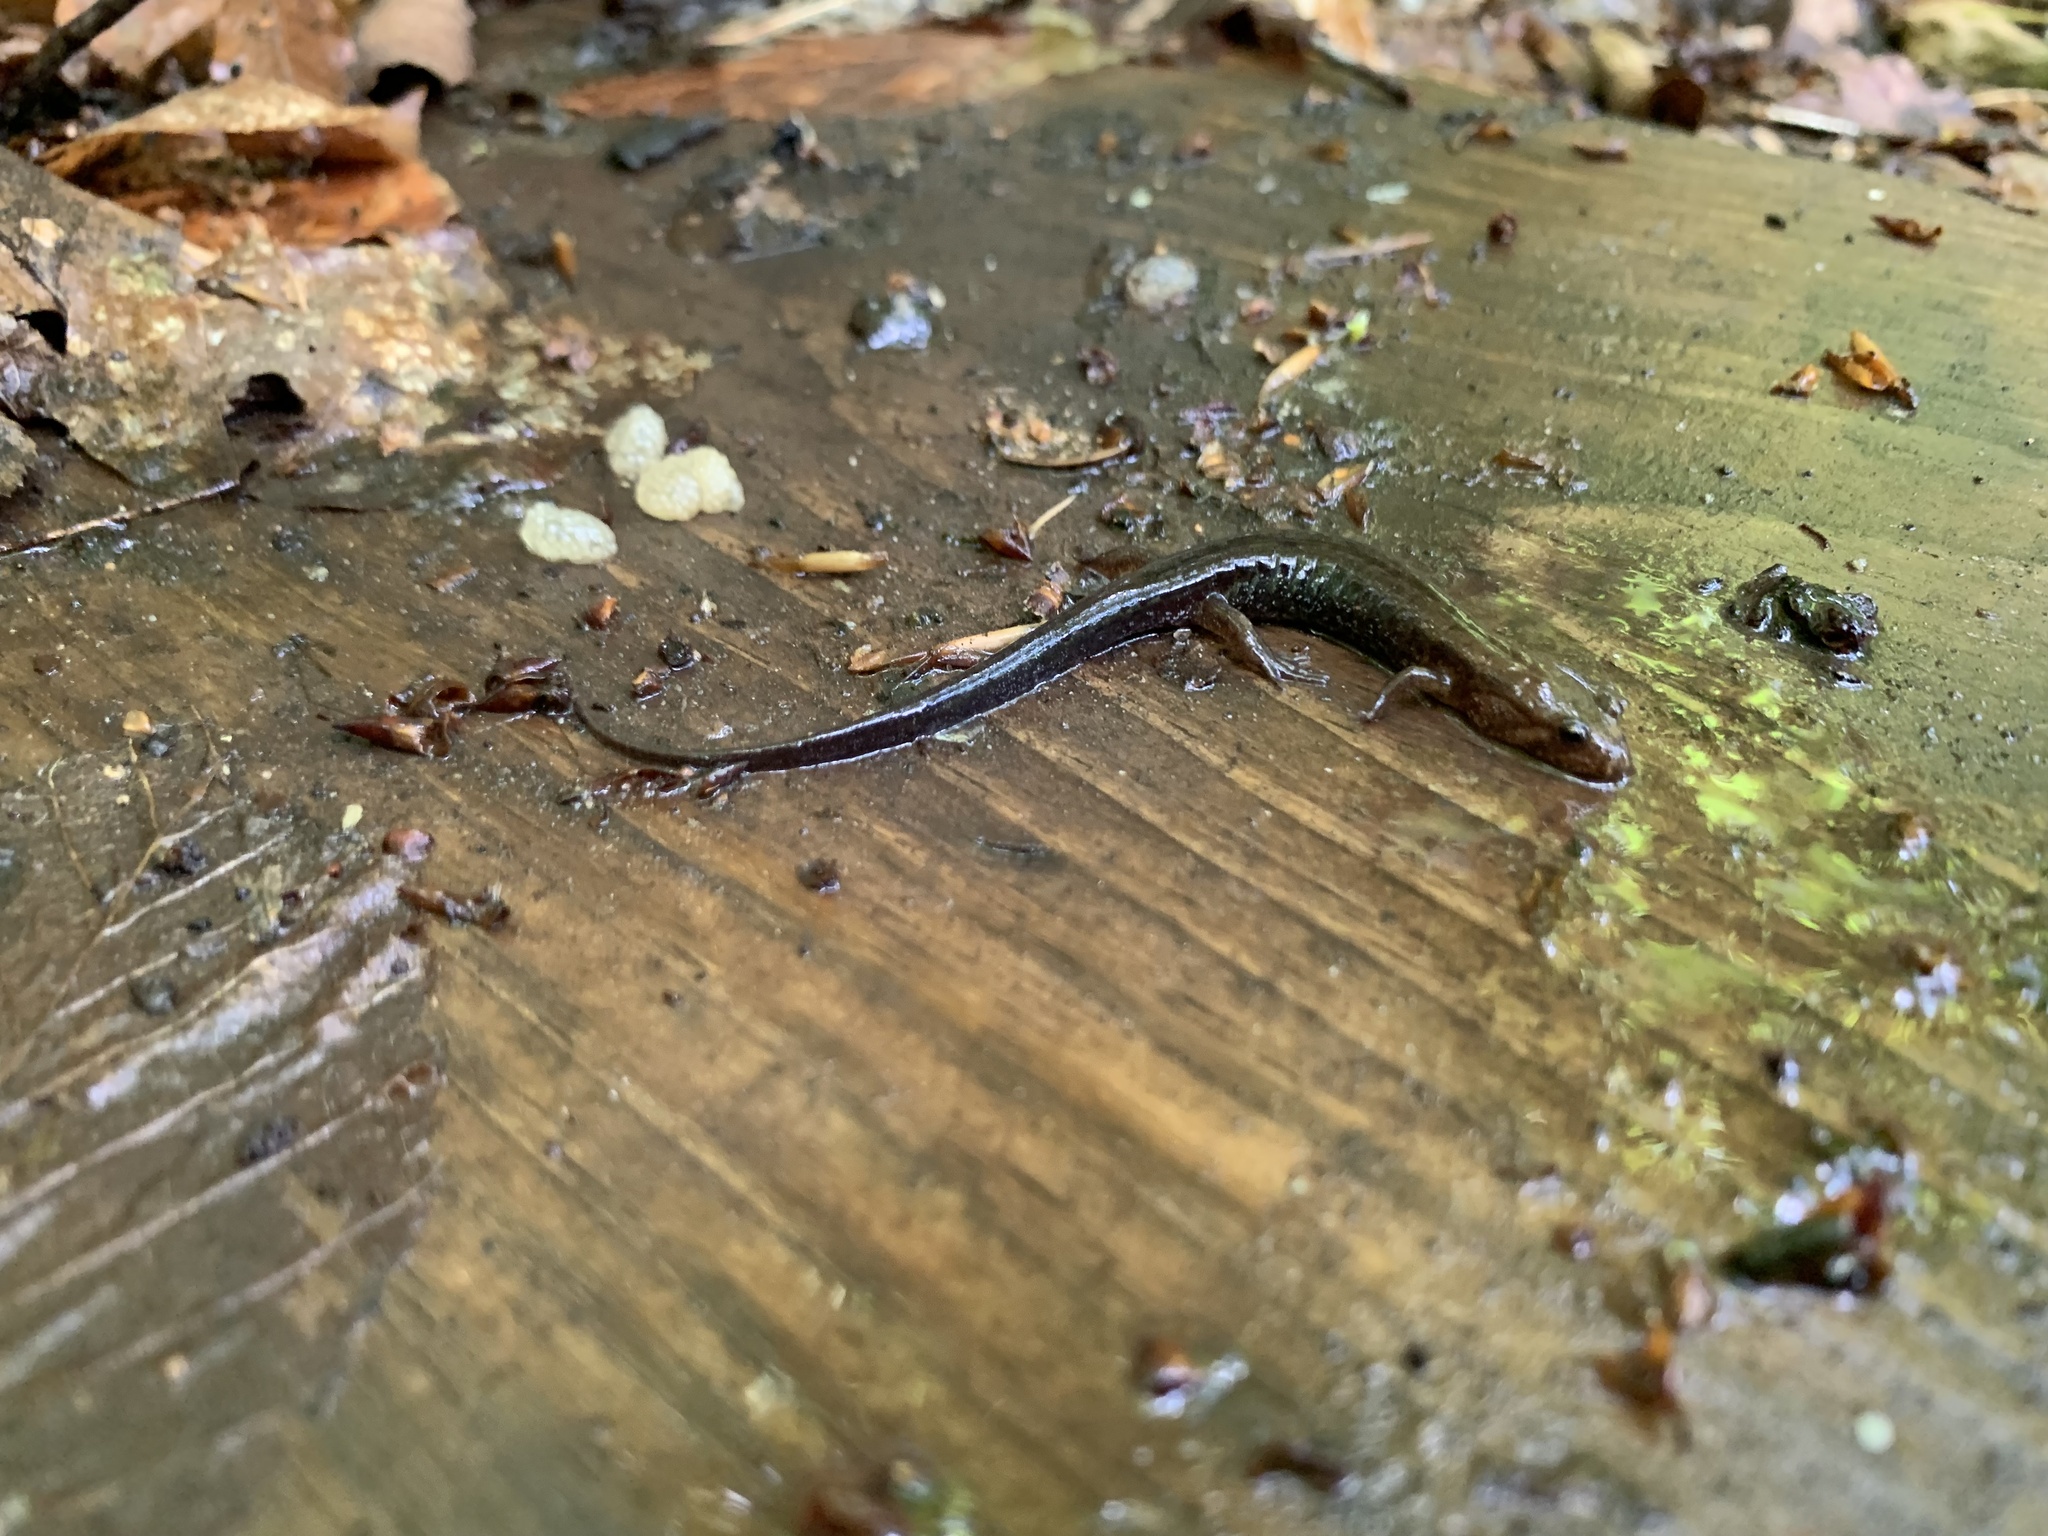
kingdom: Animalia
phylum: Chordata
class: Amphibia
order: Caudata
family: Plethodontidae
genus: Desmognathus
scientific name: Desmognathus ochrophaeus
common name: Allegheny mountain dusky salamander
